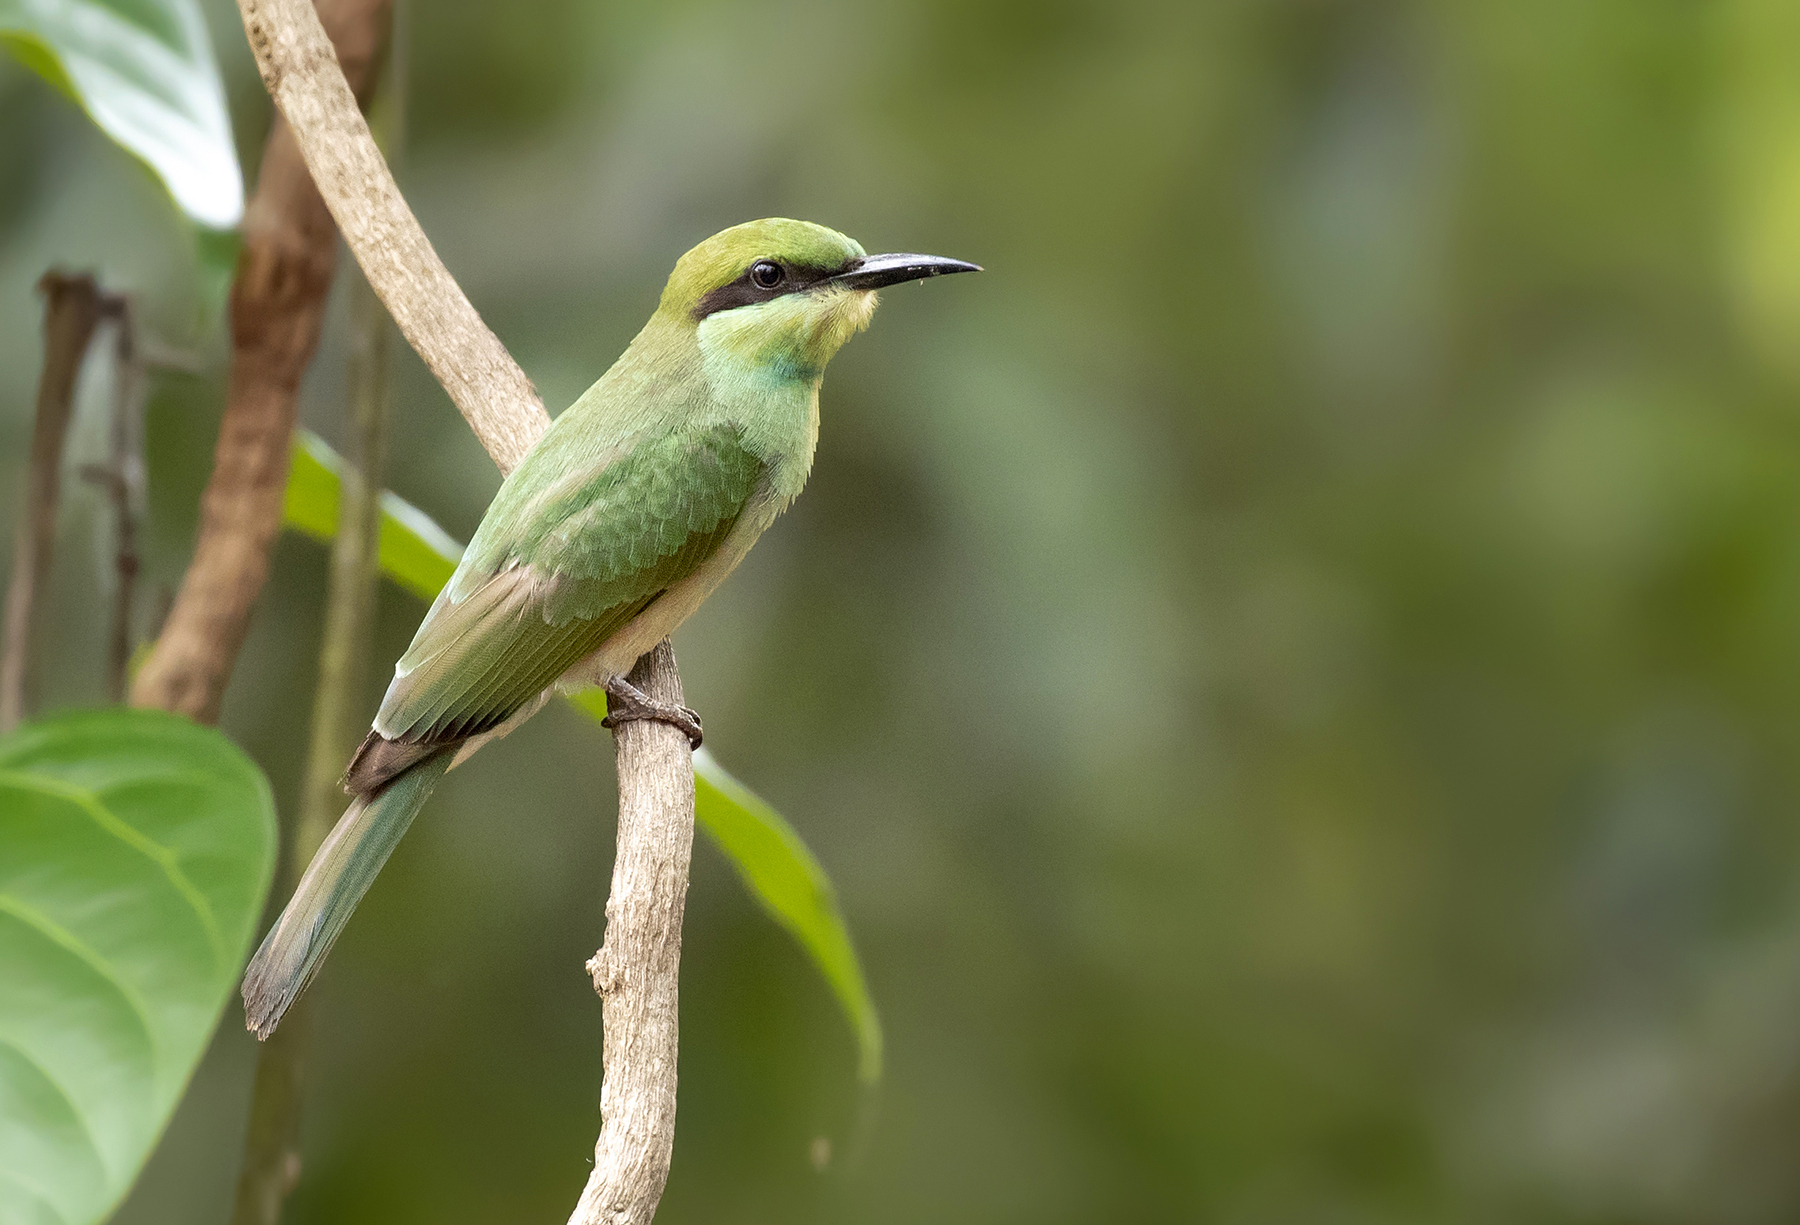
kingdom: Animalia
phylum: Chordata
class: Aves
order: Coraciiformes
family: Meropidae
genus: Merops
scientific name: Merops orientalis
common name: Green bee-eater
